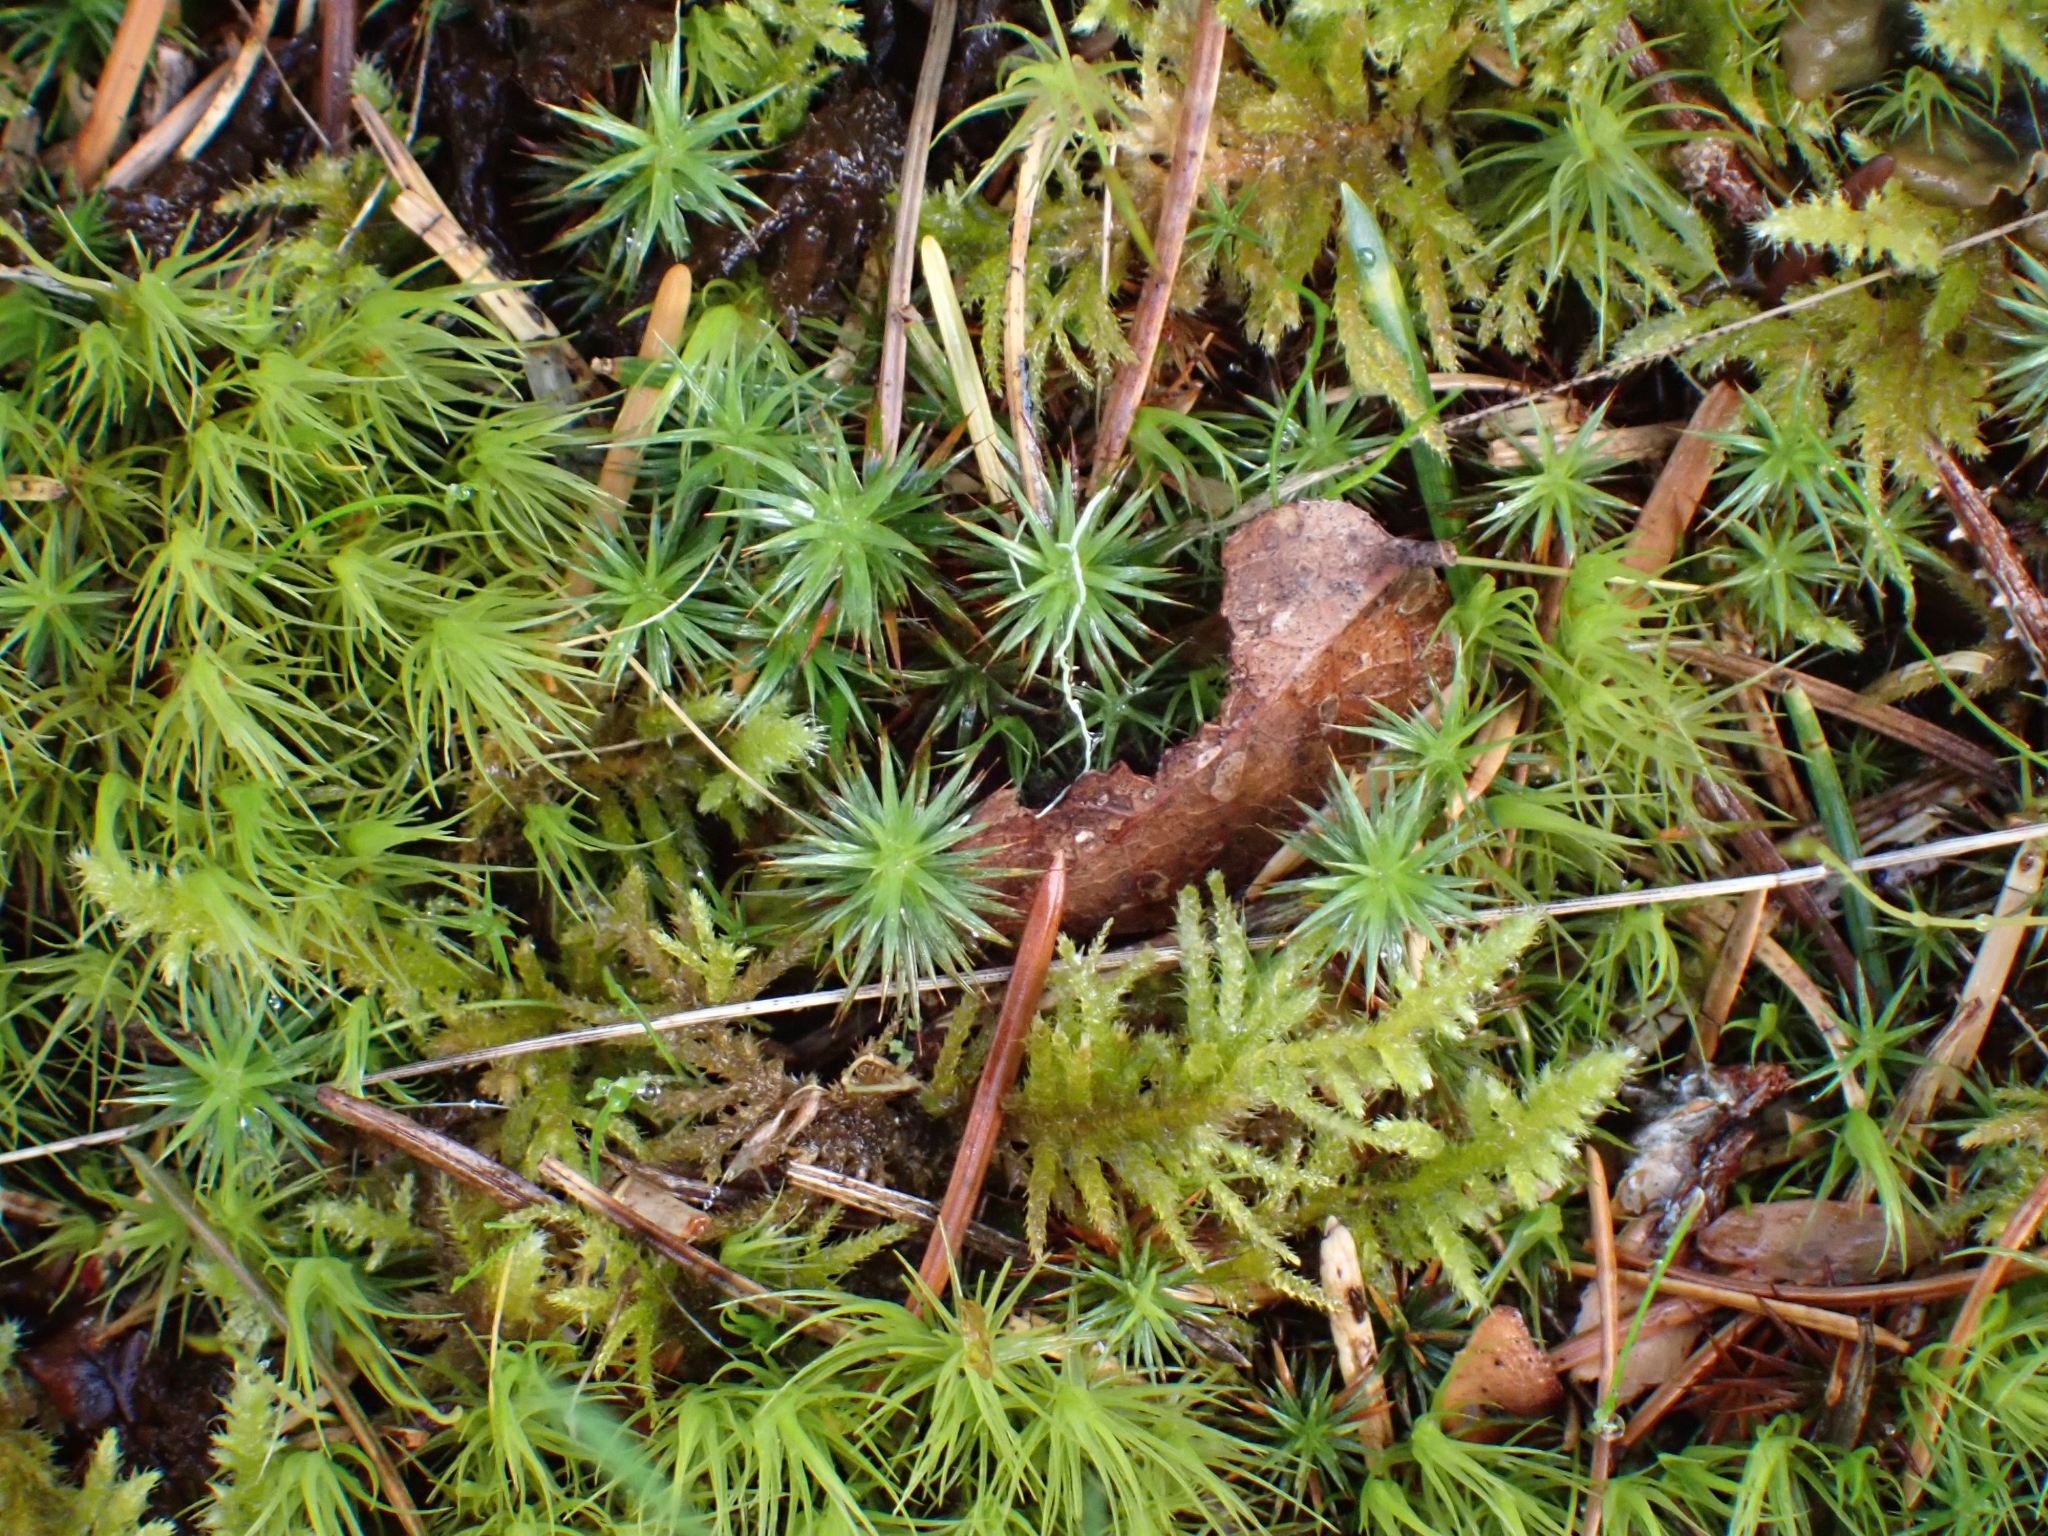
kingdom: Plantae
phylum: Bryophyta
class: Polytrichopsida
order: Polytrichales
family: Polytrichaceae
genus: Polytrichum
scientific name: Polytrichum juniperinum
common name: Juniper haircap moss
